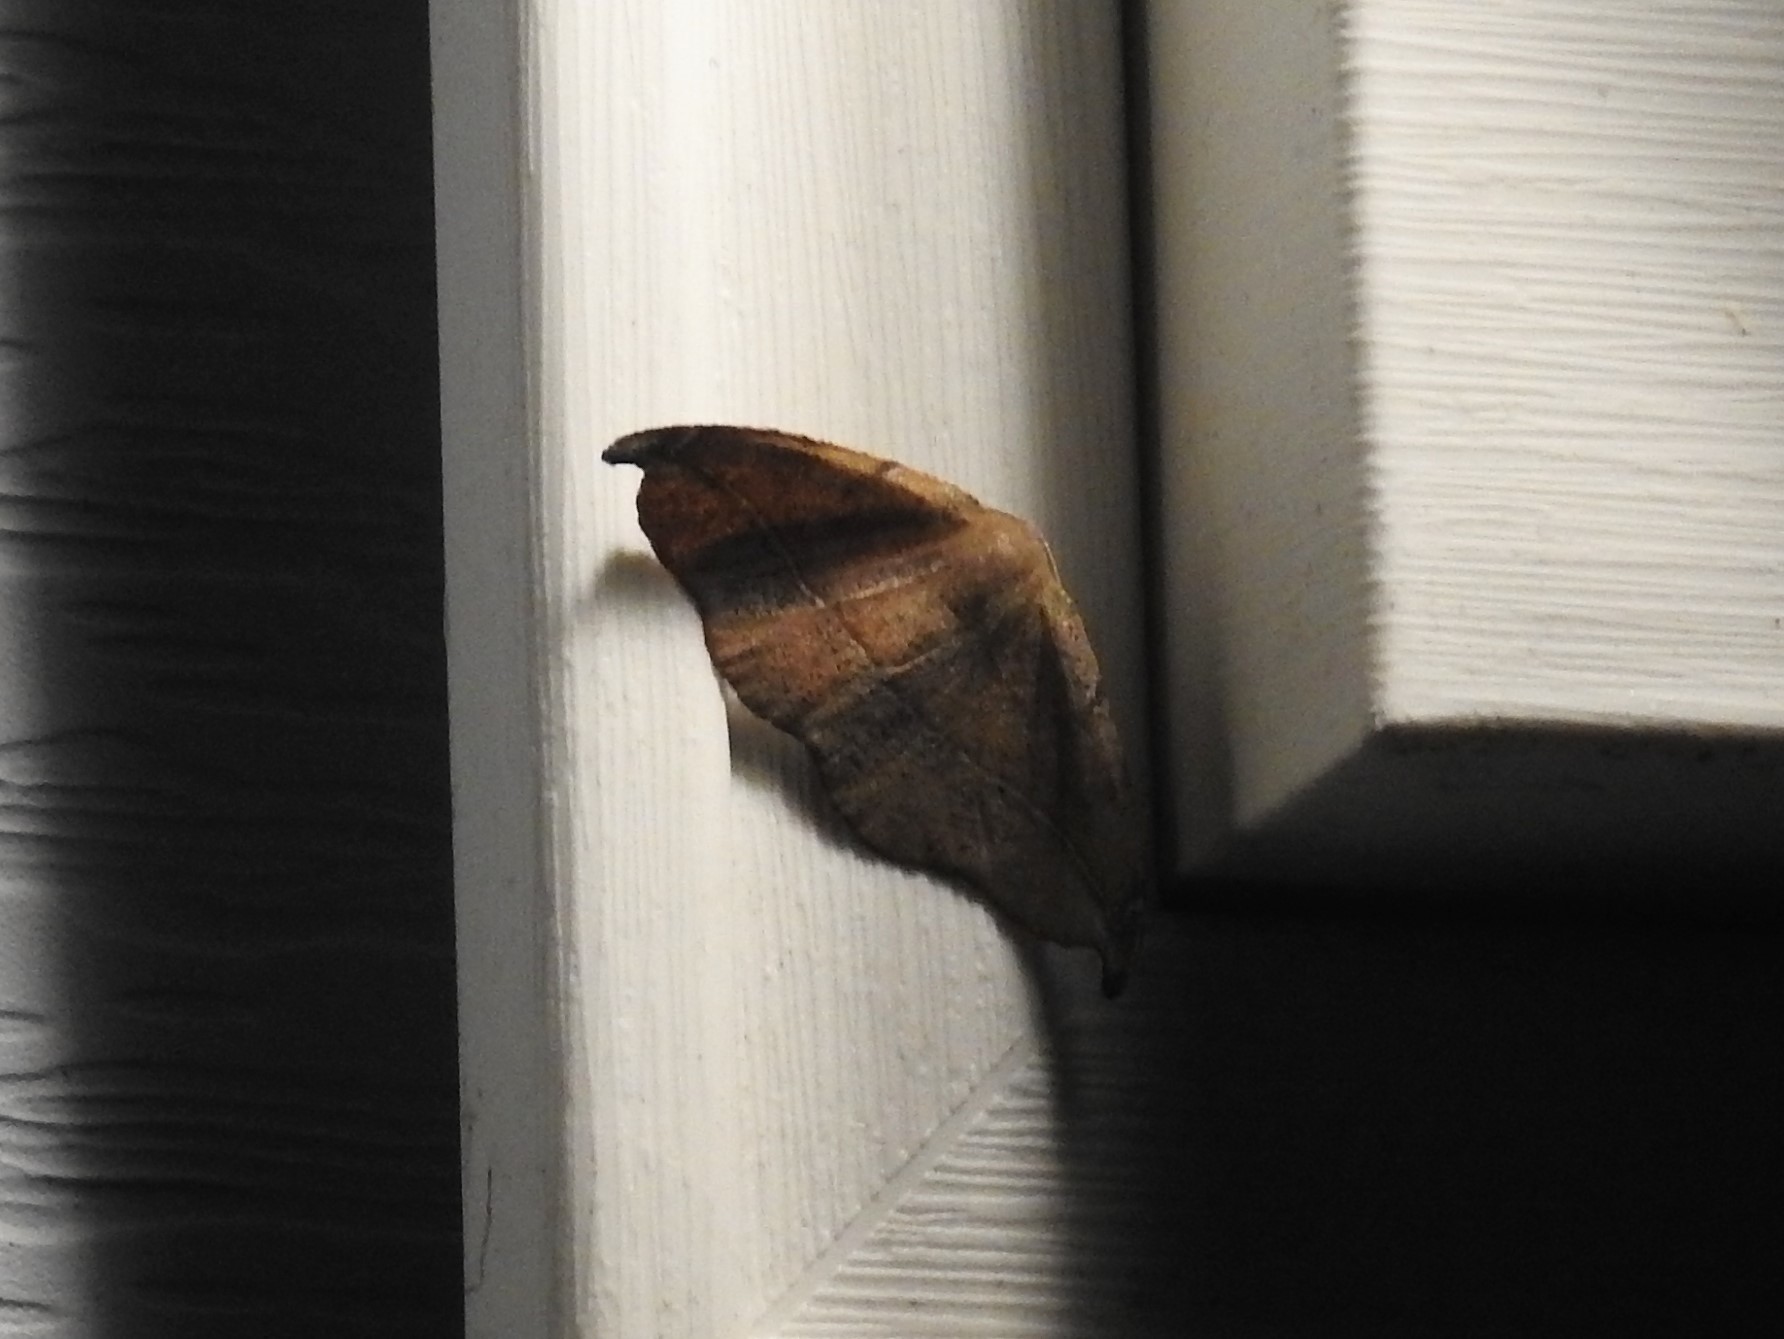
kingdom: Animalia
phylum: Arthropoda
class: Insecta
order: Lepidoptera
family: Geometridae
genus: Patalene
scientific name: Patalene olyzonaria
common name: Juniper geometer moth
